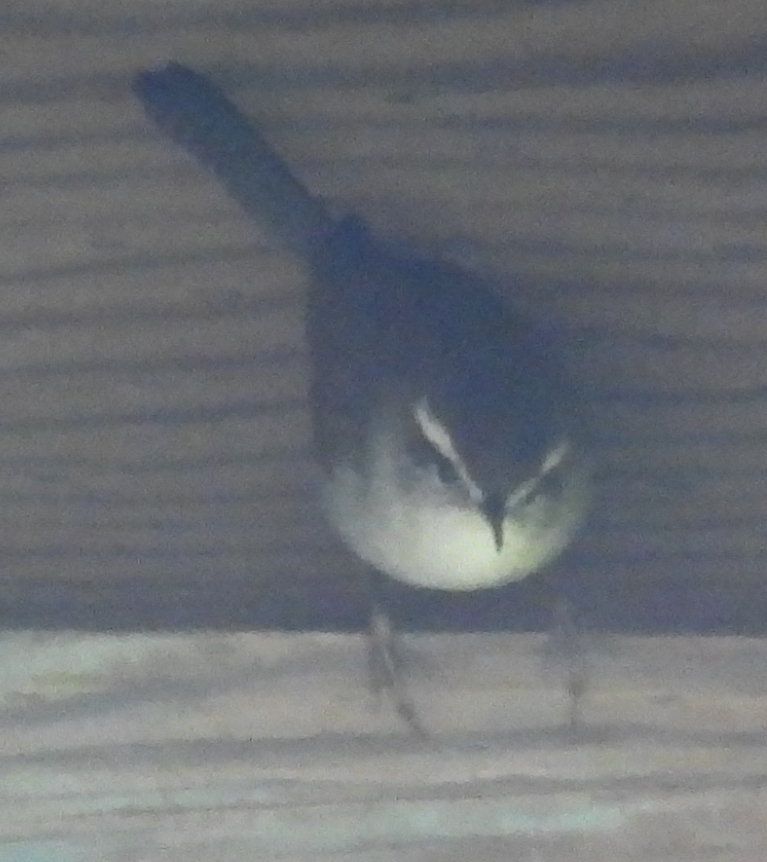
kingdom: Animalia
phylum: Chordata
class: Aves
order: Passeriformes
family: Troglodytidae
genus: Thryomanes
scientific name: Thryomanes bewickii
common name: Bewick's wren
